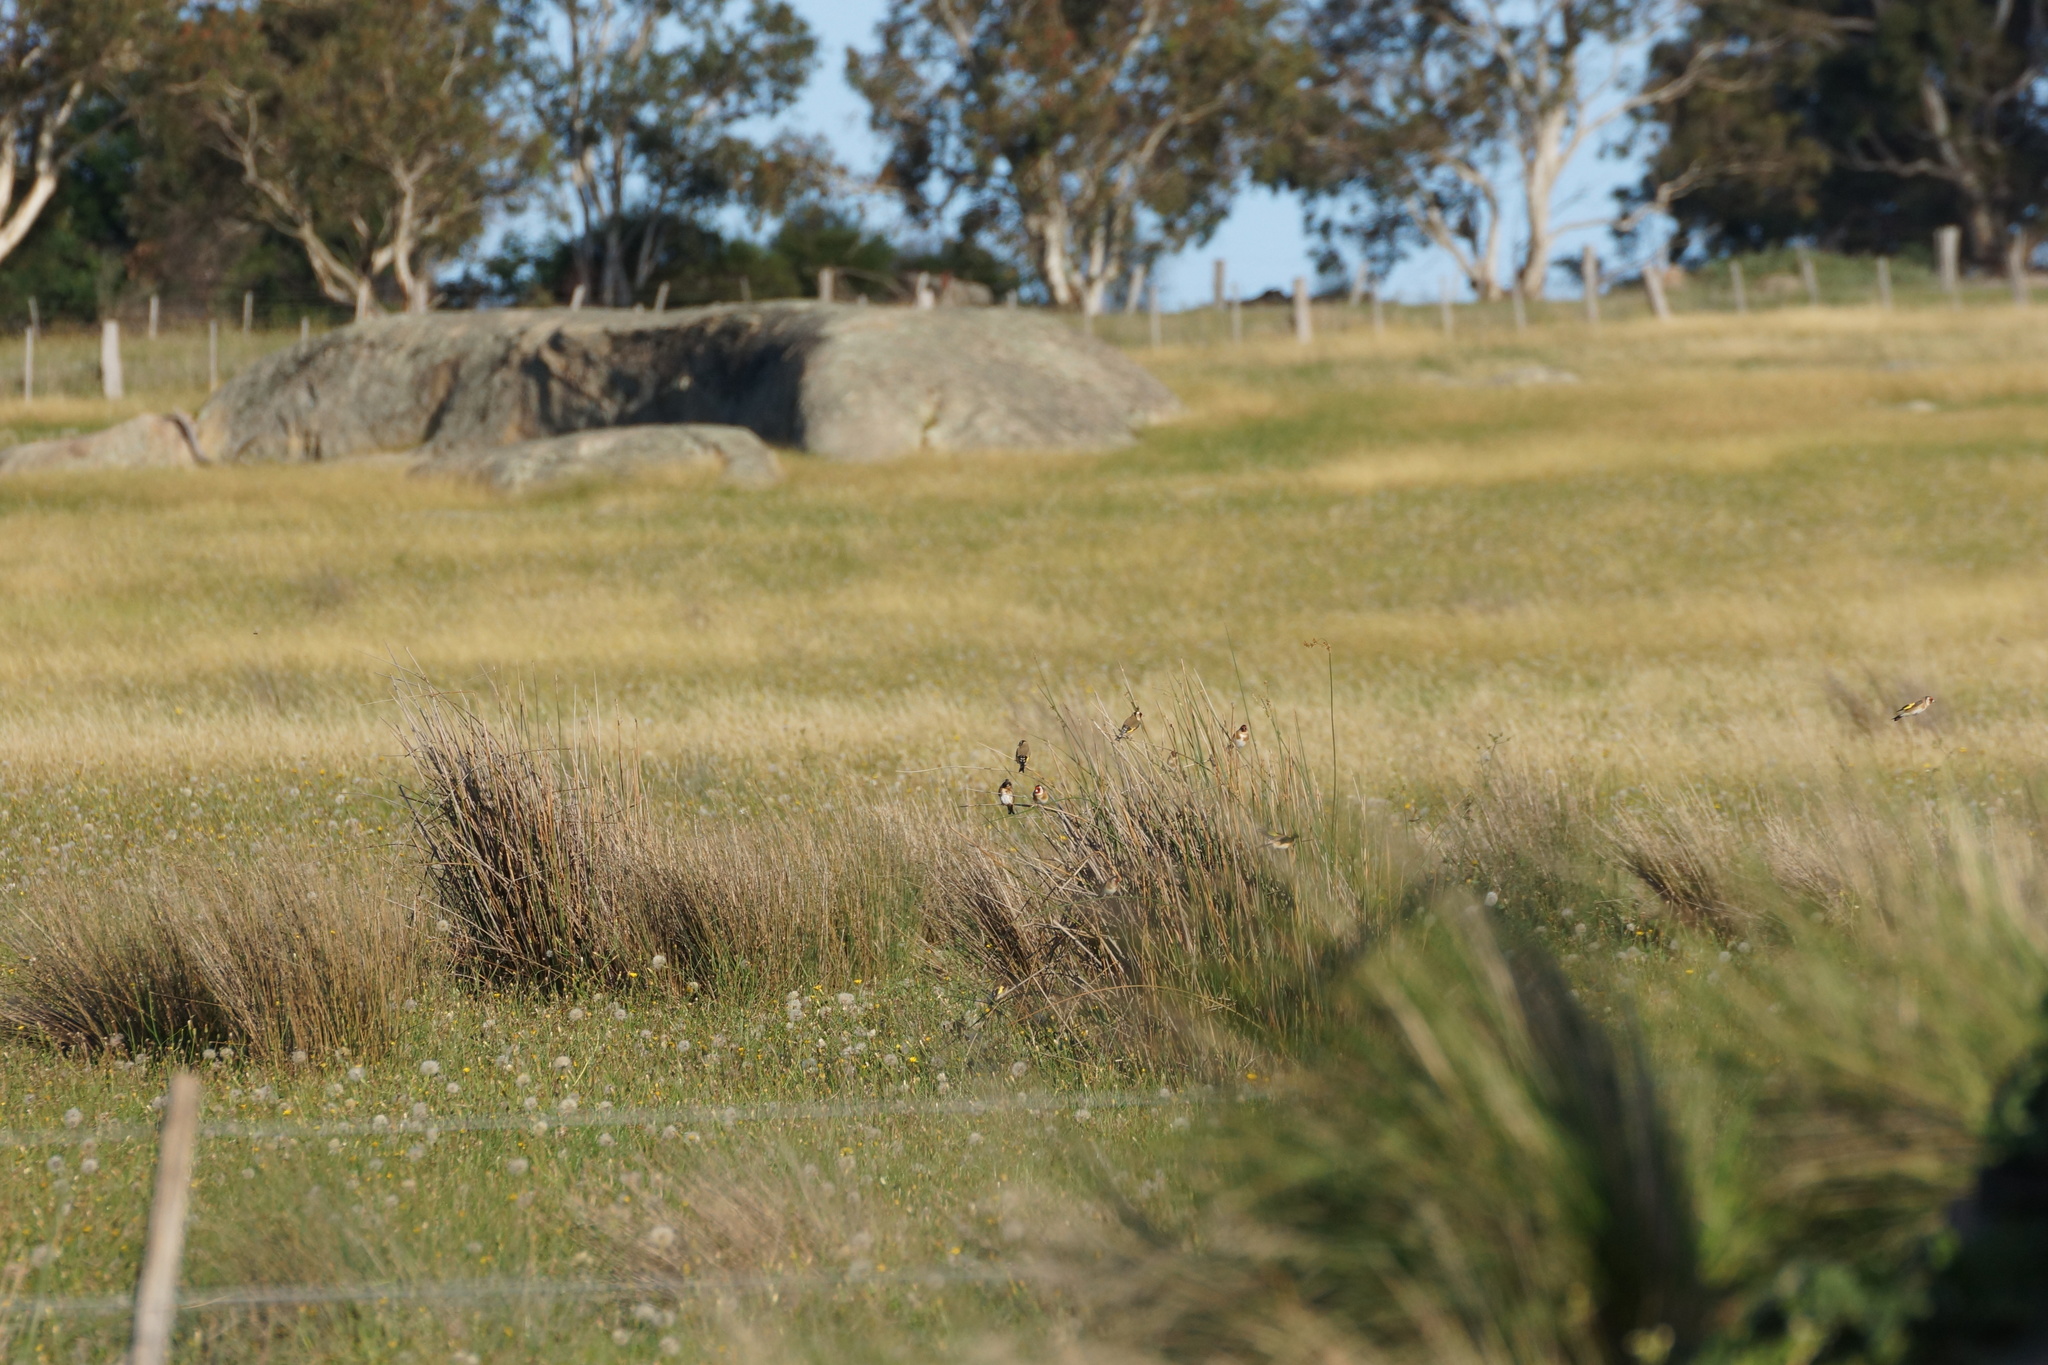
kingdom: Animalia
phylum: Chordata
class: Aves
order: Passeriformes
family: Fringillidae
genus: Carduelis
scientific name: Carduelis carduelis
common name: European goldfinch
